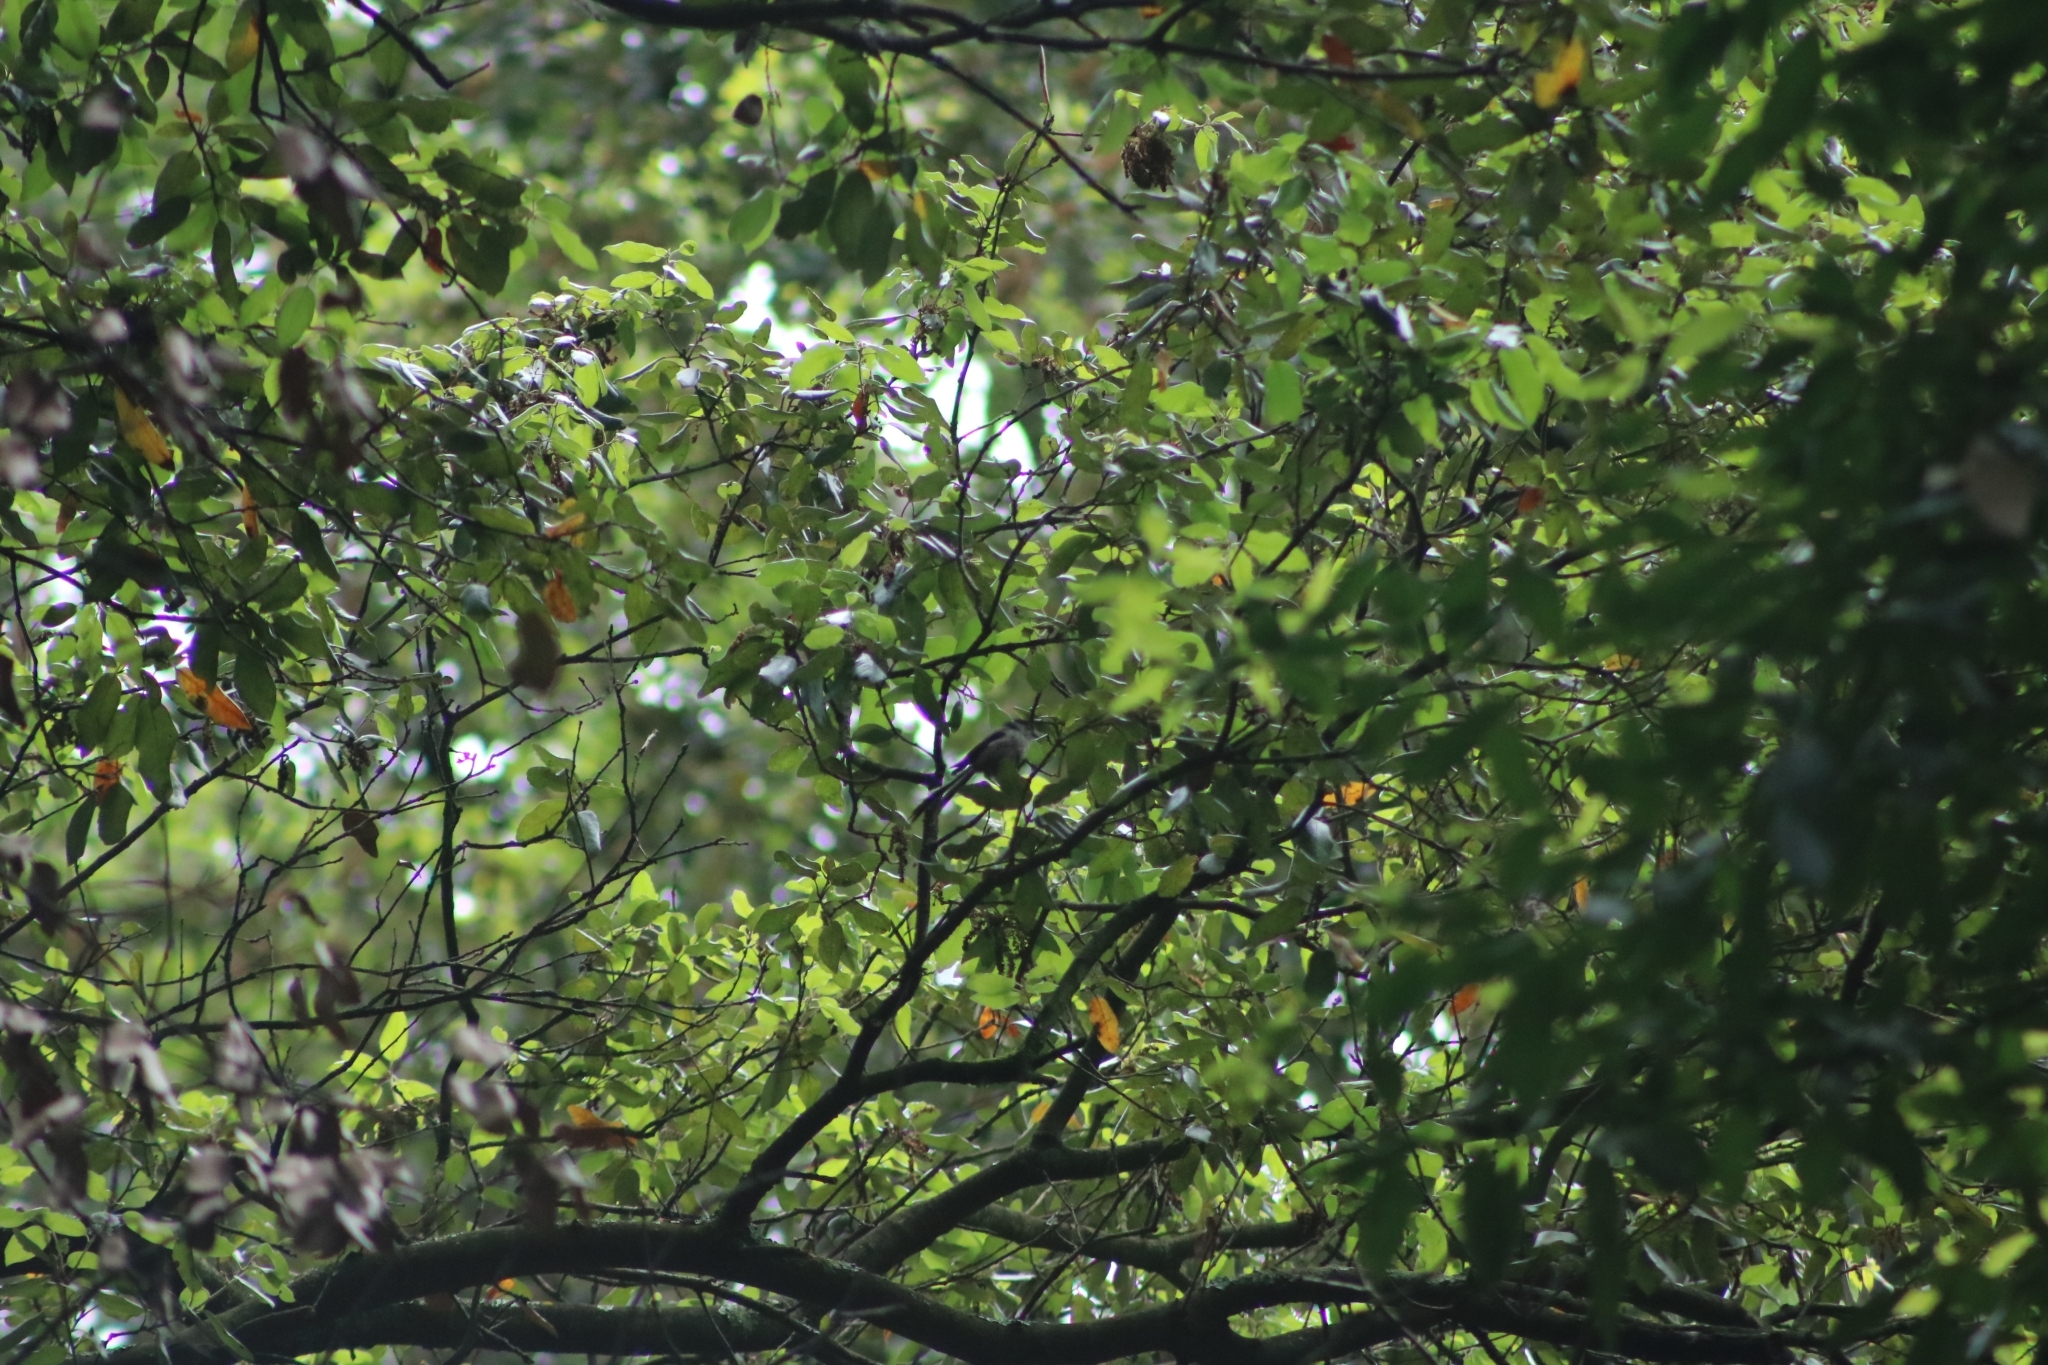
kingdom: Animalia
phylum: Chordata
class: Aves
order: Passeriformes
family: Aegithalidae
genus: Aegithalos
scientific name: Aegithalos caudatus
